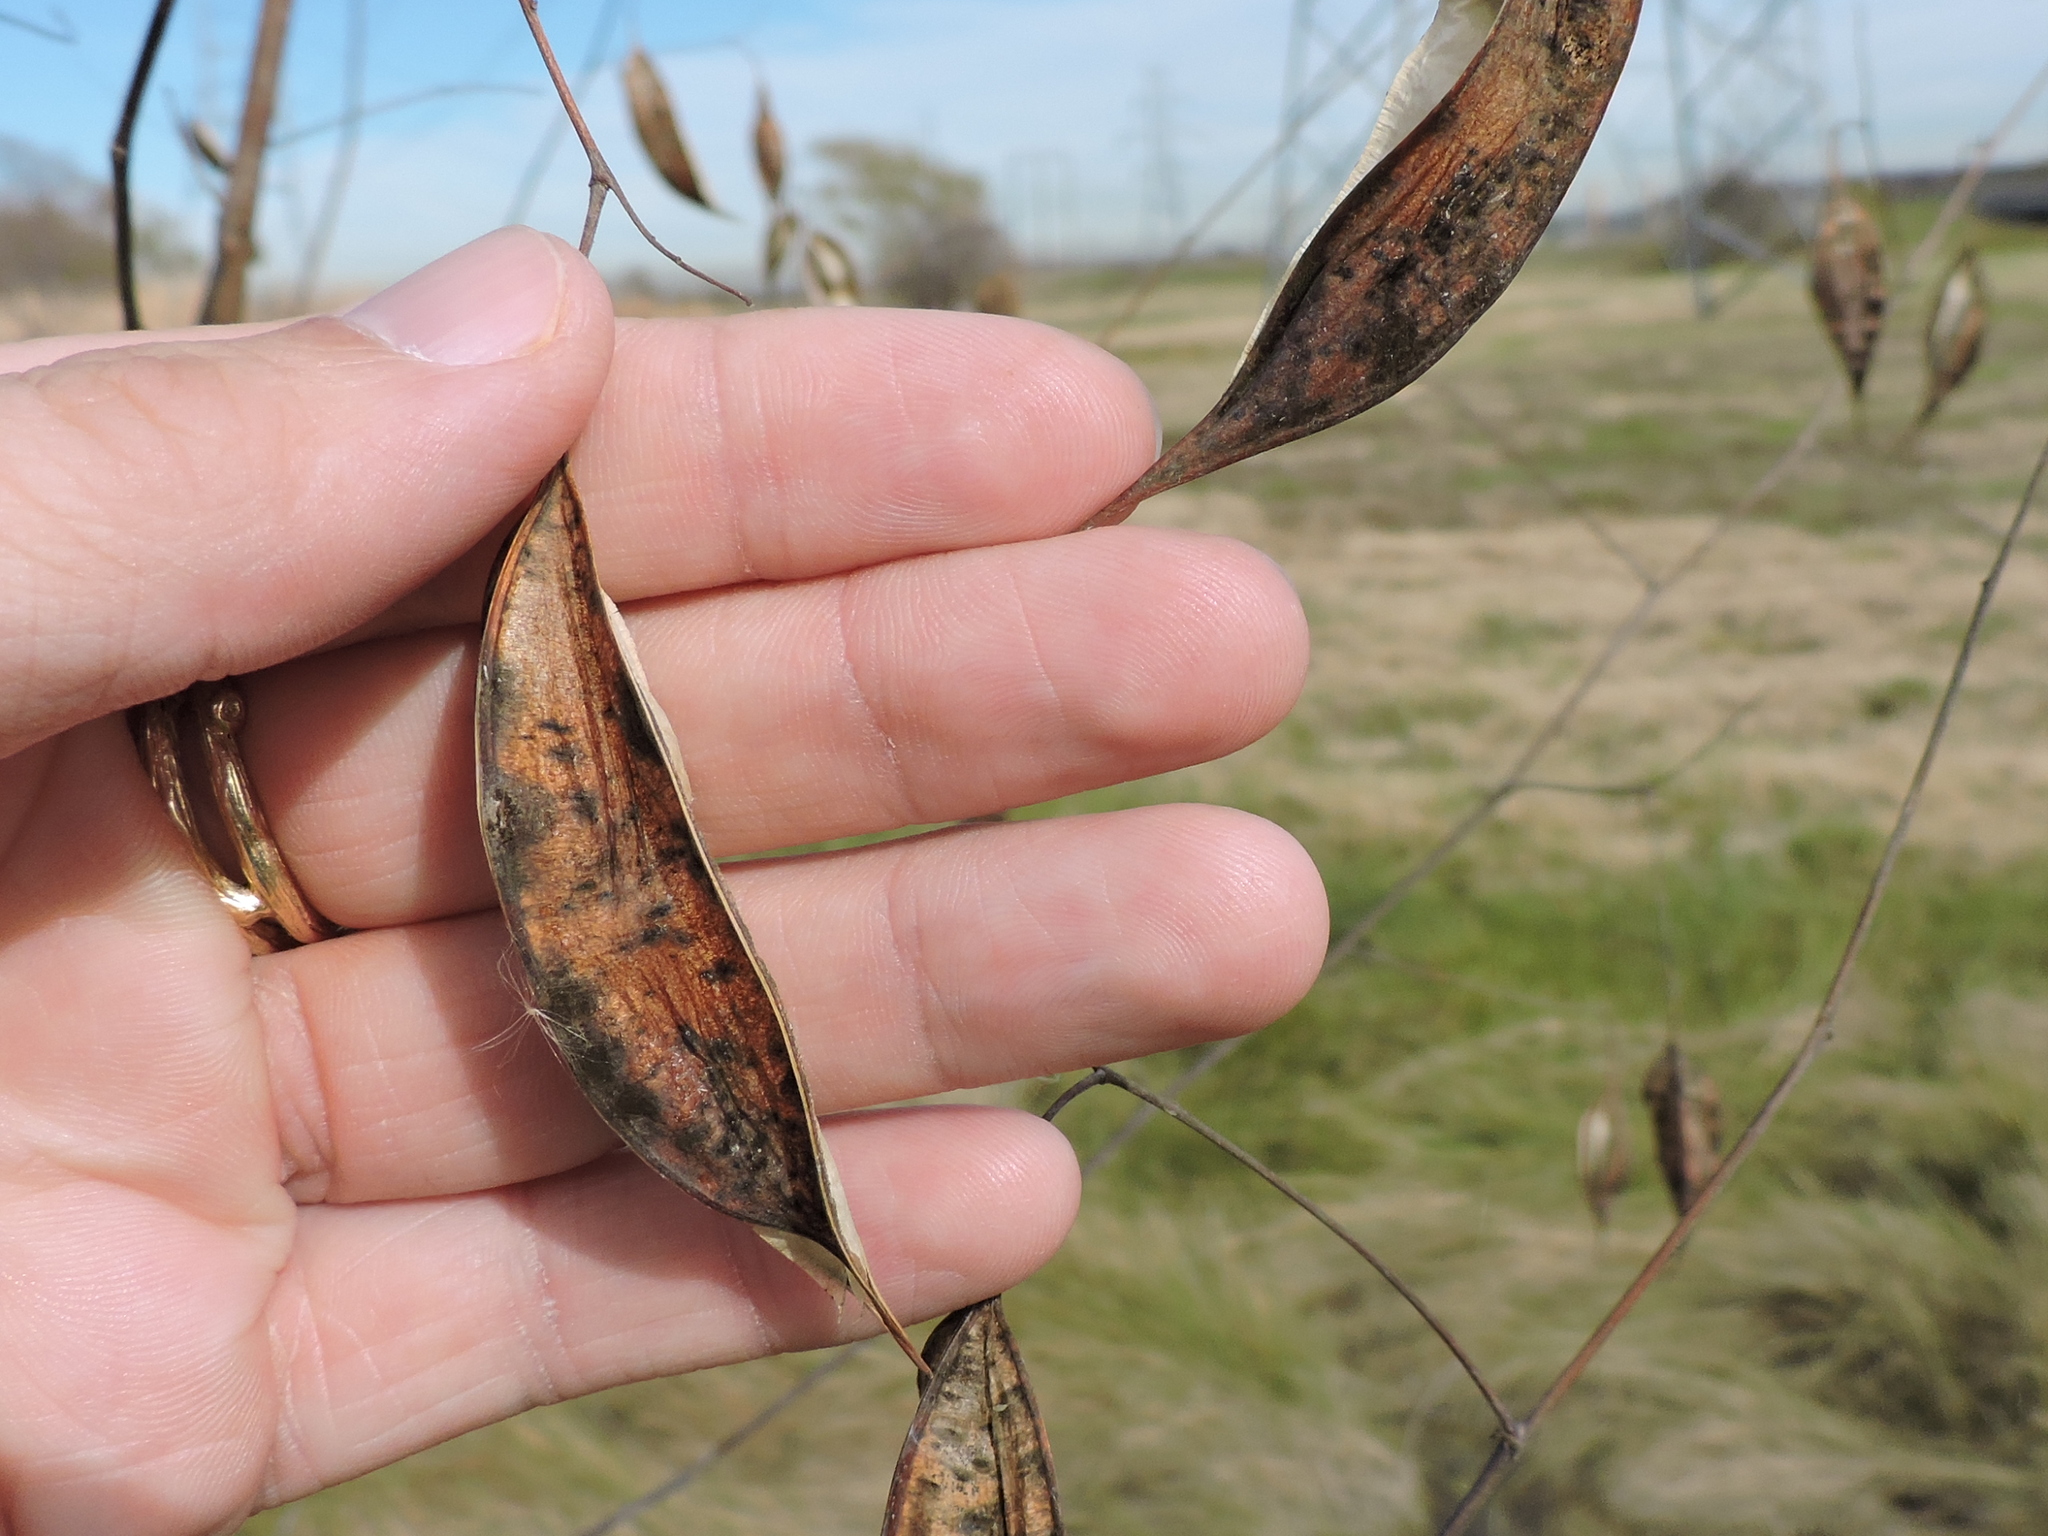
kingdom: Plantae
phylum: Tracheophyta
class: Magnoliopsida
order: Fabales
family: Fabaceae
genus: Sesbania
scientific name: Sesbania vesicaria
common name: Bagpod
